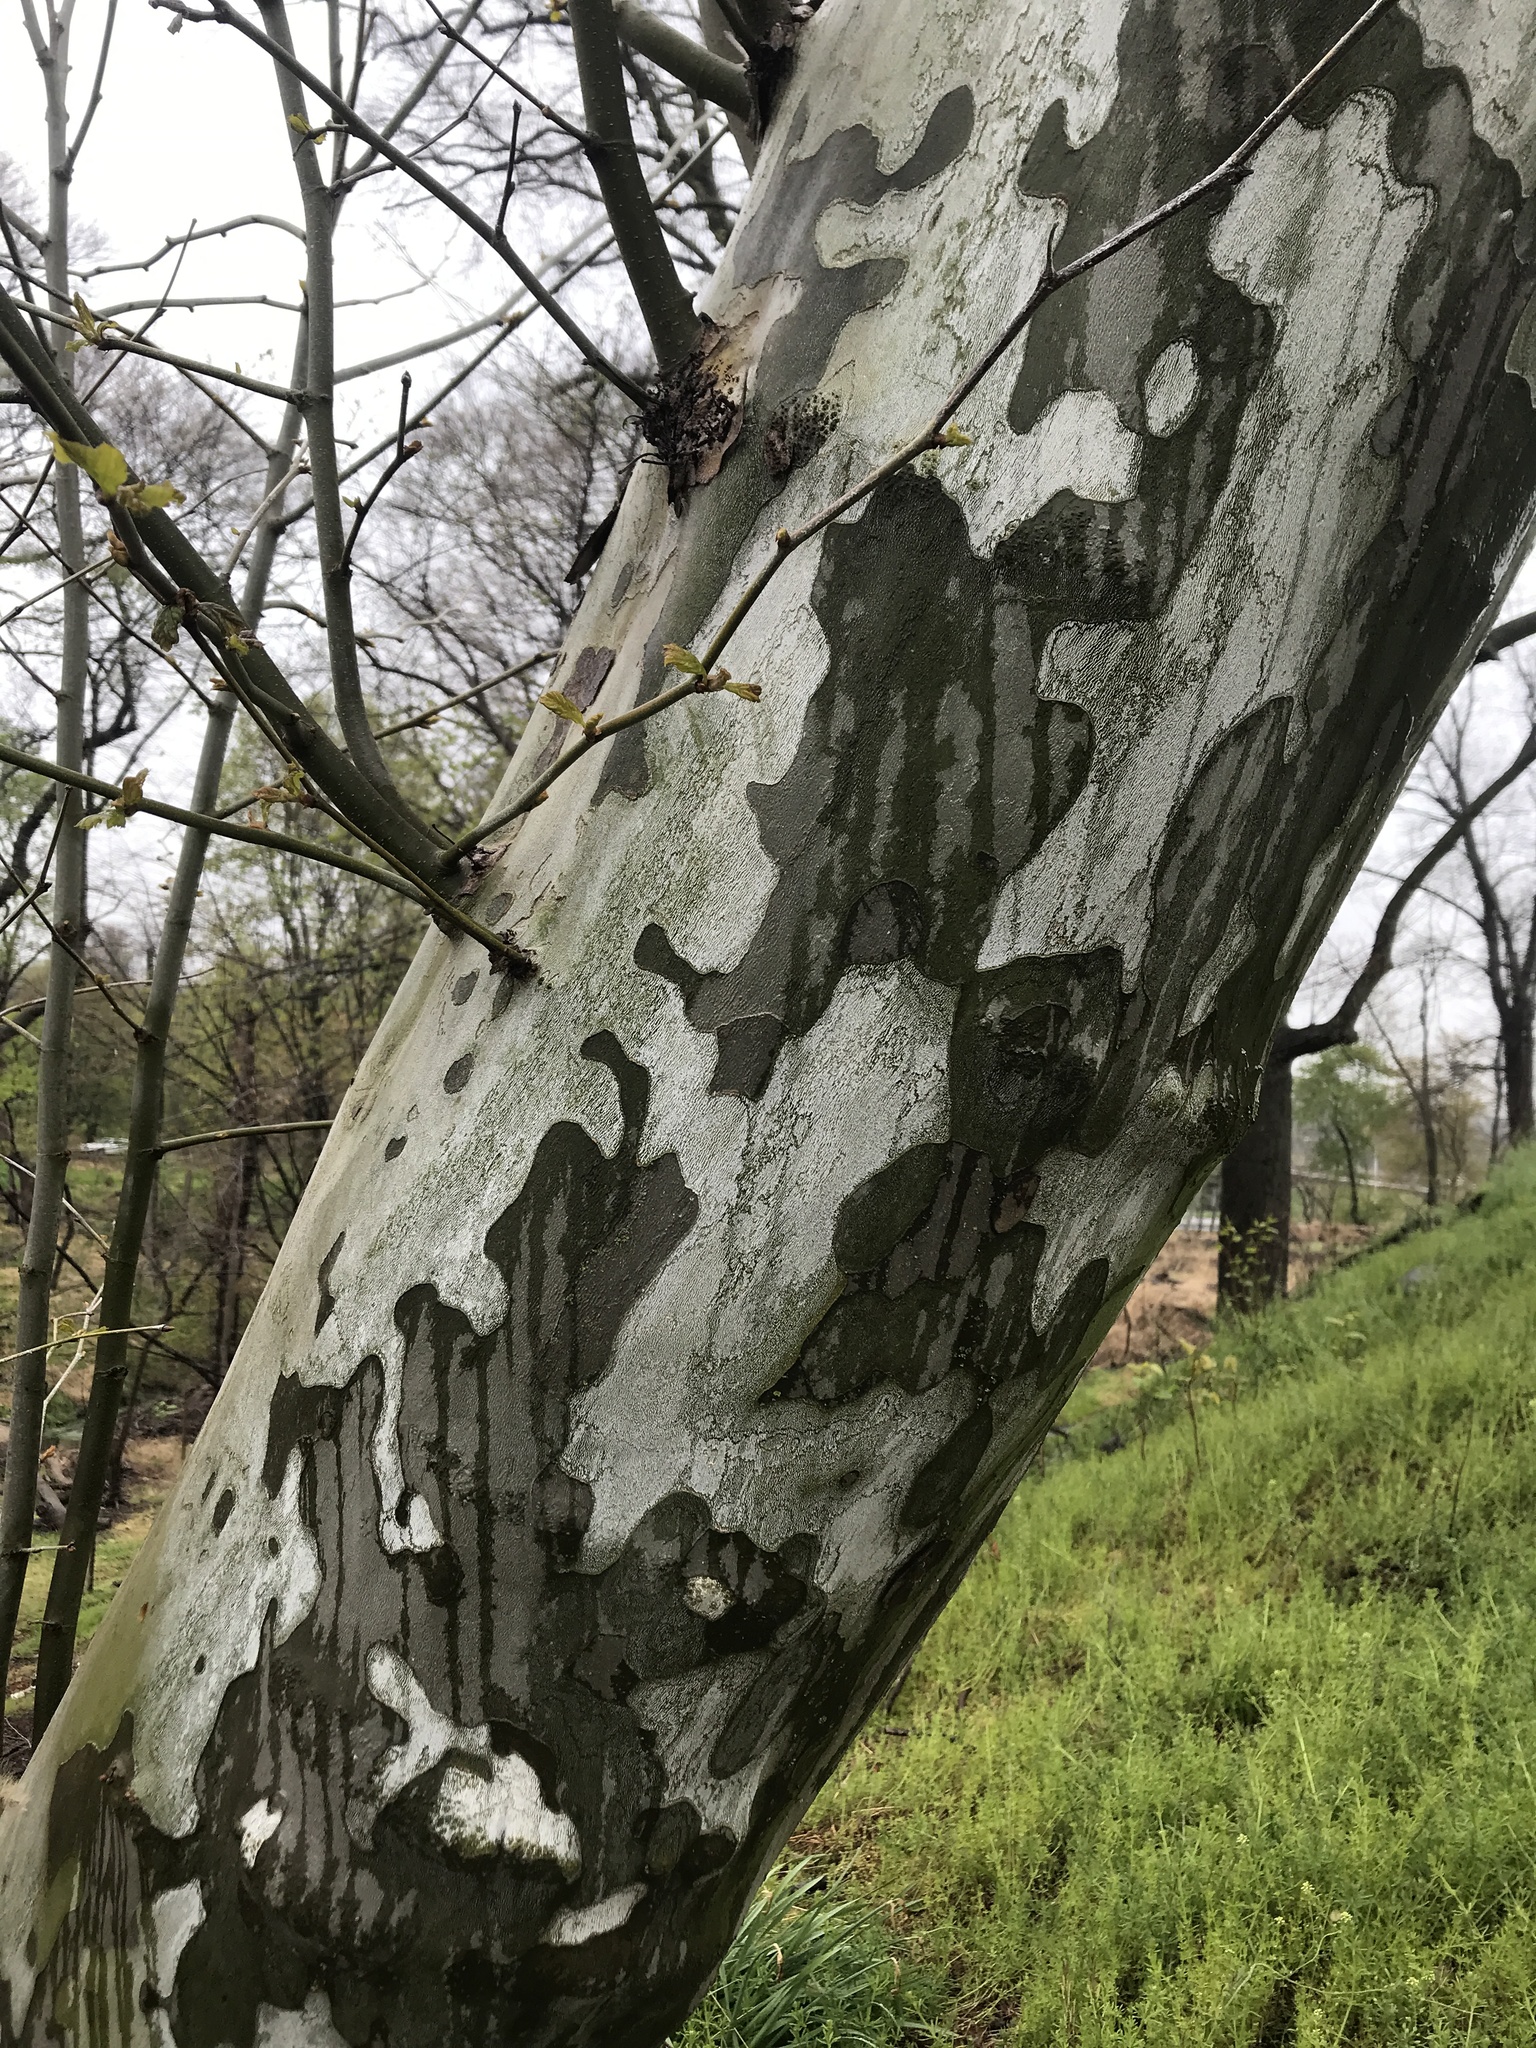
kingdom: Plantae
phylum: Tracheophyta
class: Magnoliopsida
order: Proteales
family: Platanaceae
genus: Platanus
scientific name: Platanus occidentalis
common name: American sycamore
